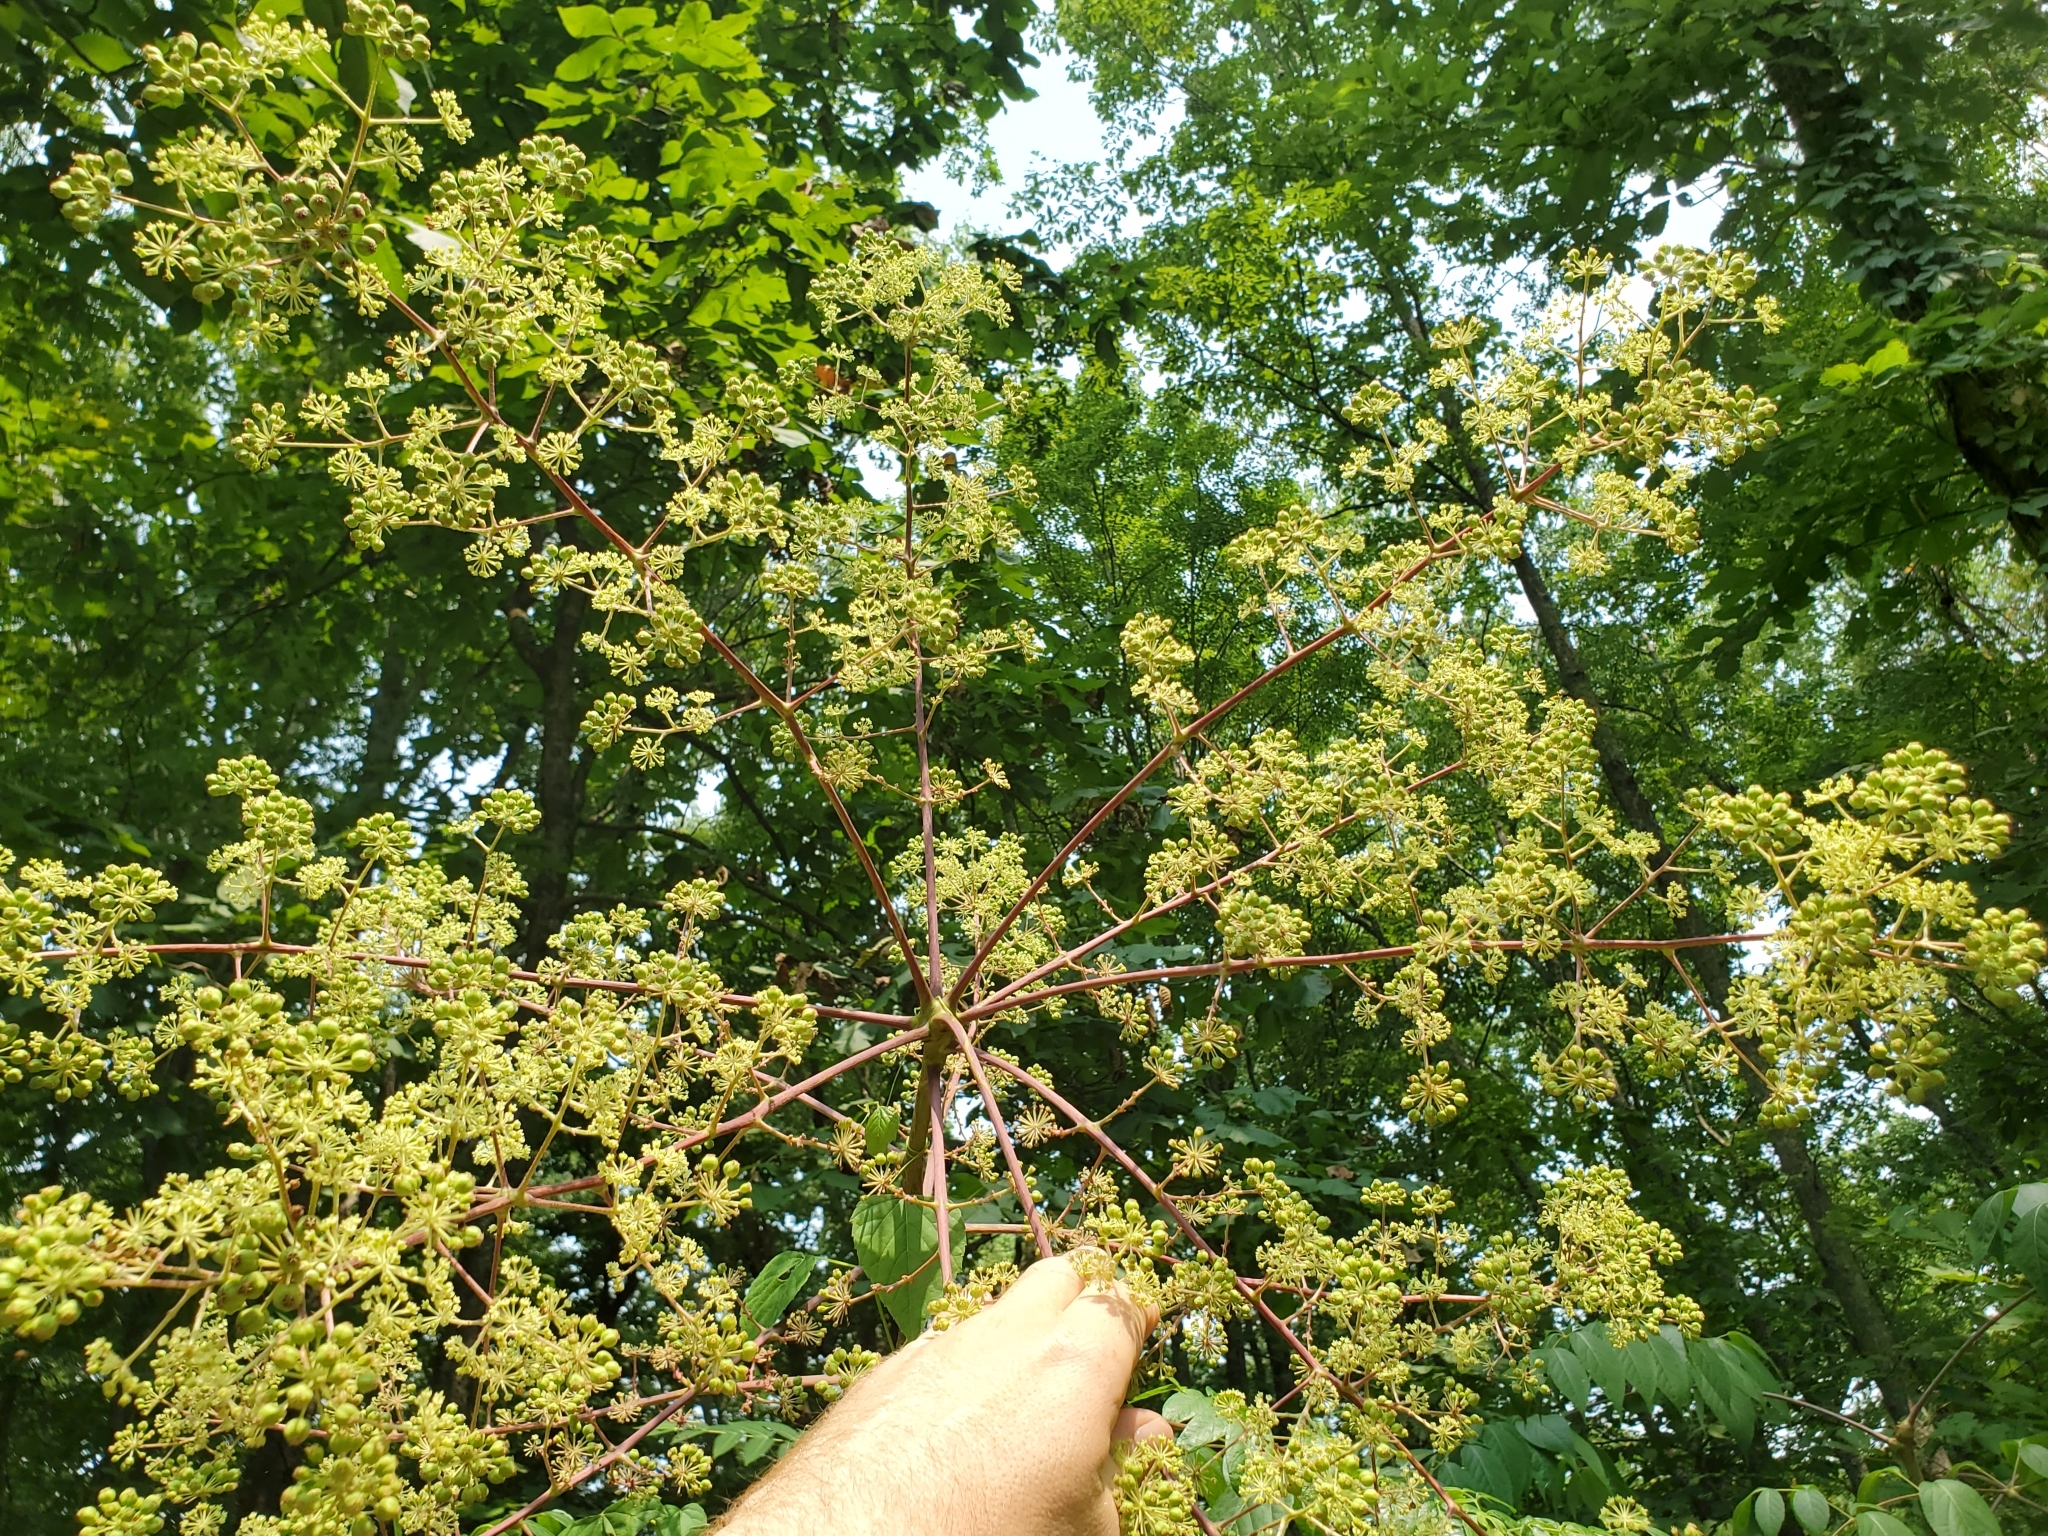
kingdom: Plantae
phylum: Tracheophyta
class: Magnoliopsida
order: Apiales
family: Araliaceae
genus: Aralia
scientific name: Aralia spinosa
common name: Hercules'-club
